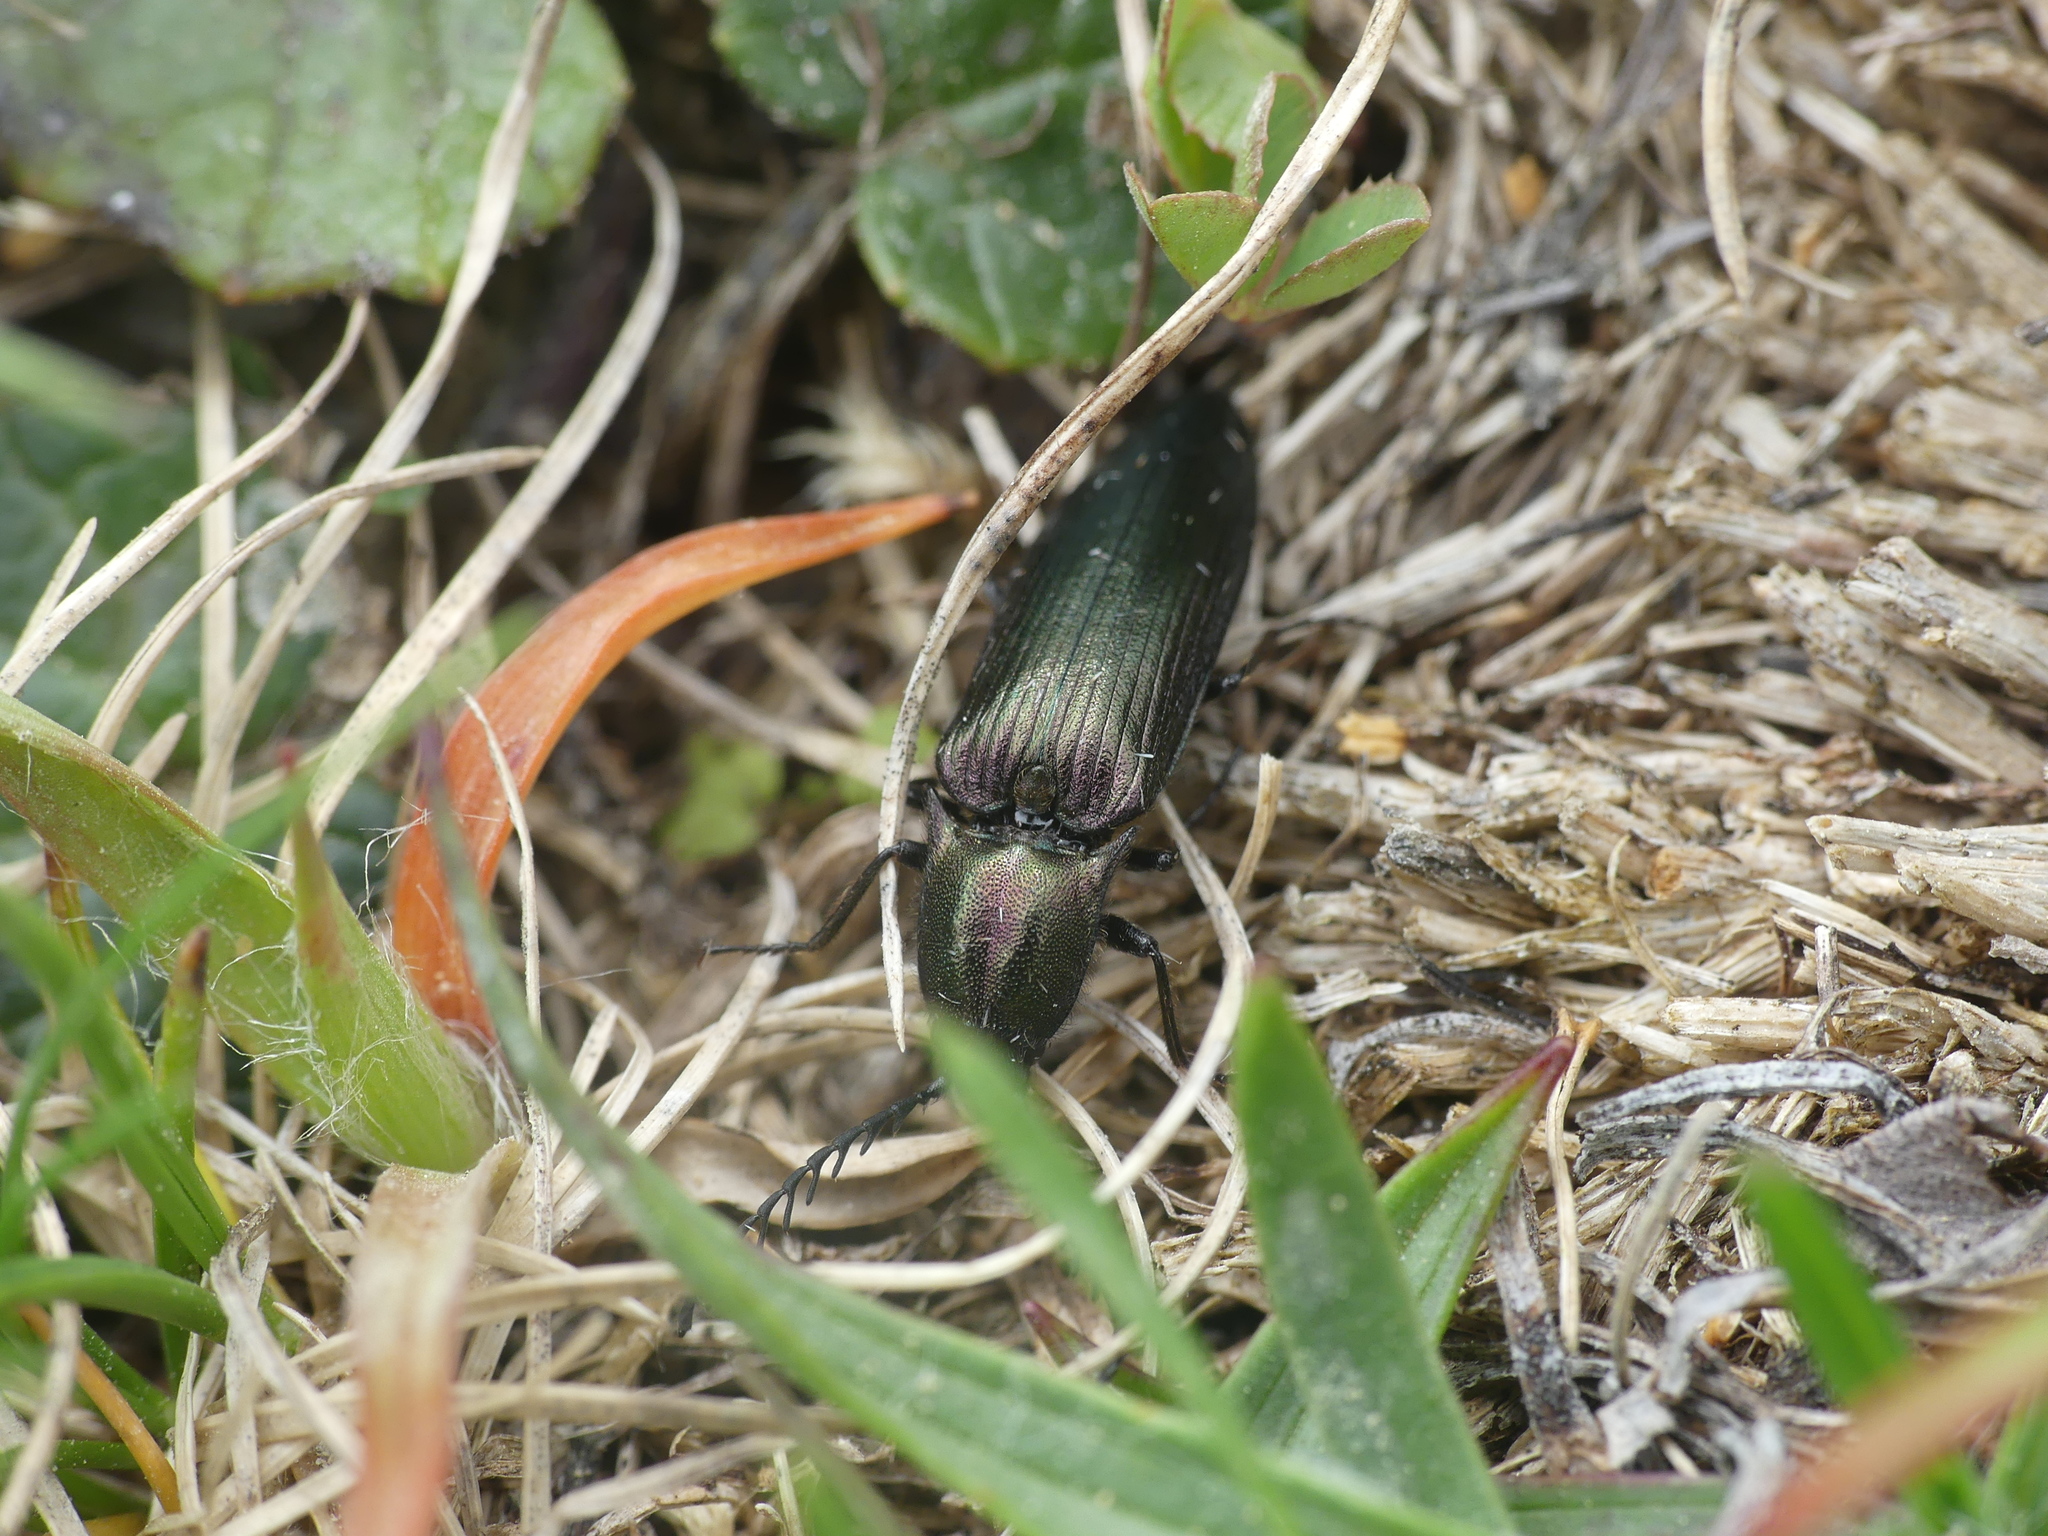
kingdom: Animalia
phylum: Arthropoda
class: Insecta
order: Coleoptera
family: Elateridae
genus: Ctenicera
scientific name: Ctenicera cuprea
